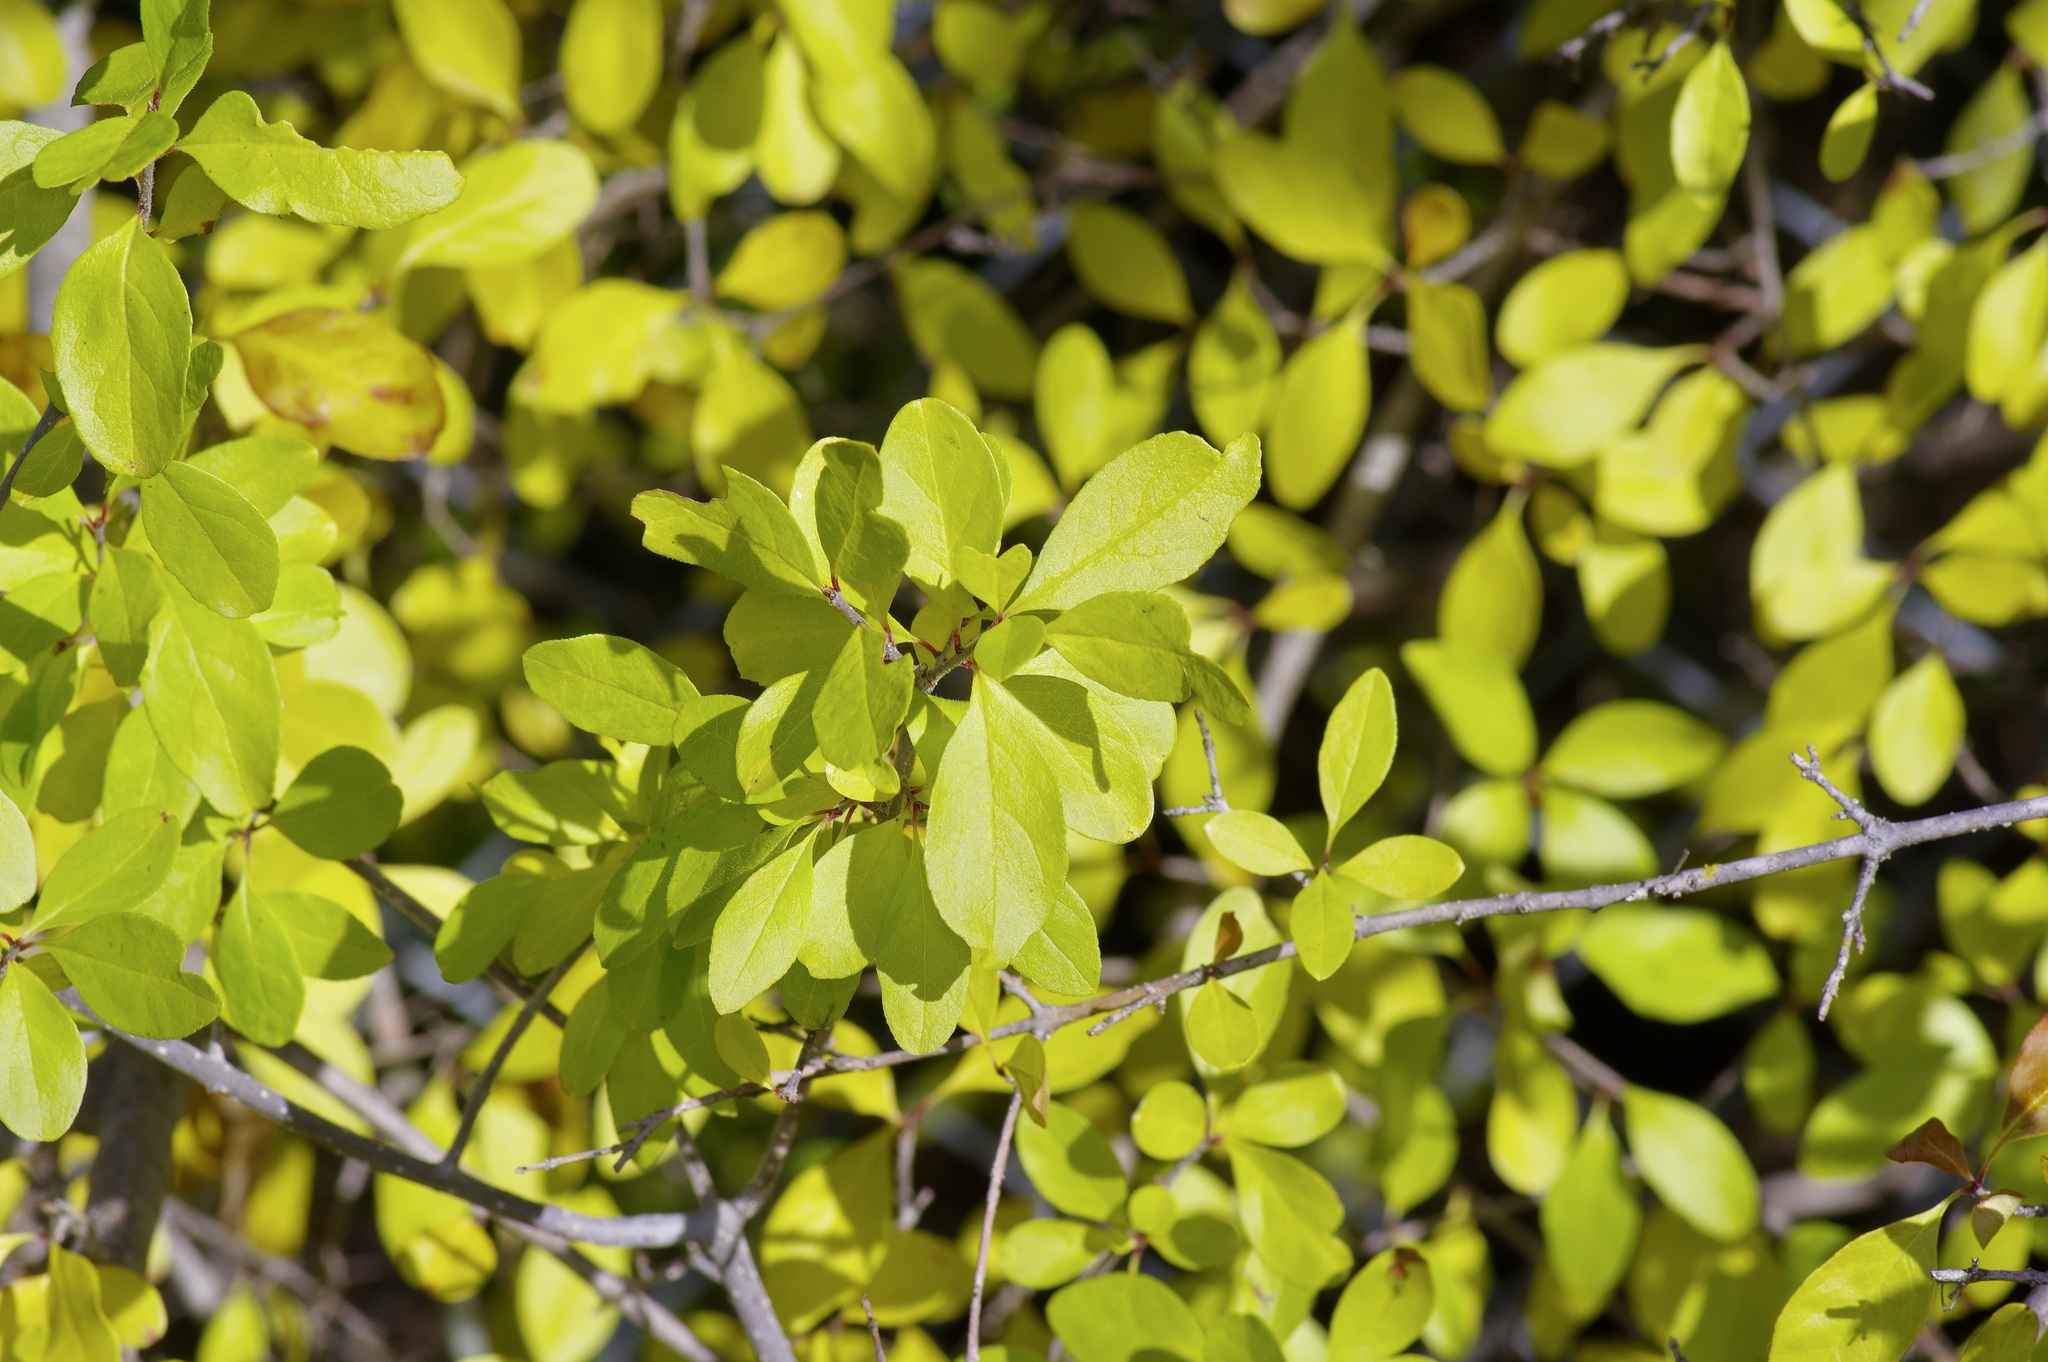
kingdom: Plantae
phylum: Tracheophyta
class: Magnoliopsida
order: Lamiales
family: Oleaceae
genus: Forestiera
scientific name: Forestiera pubescens
